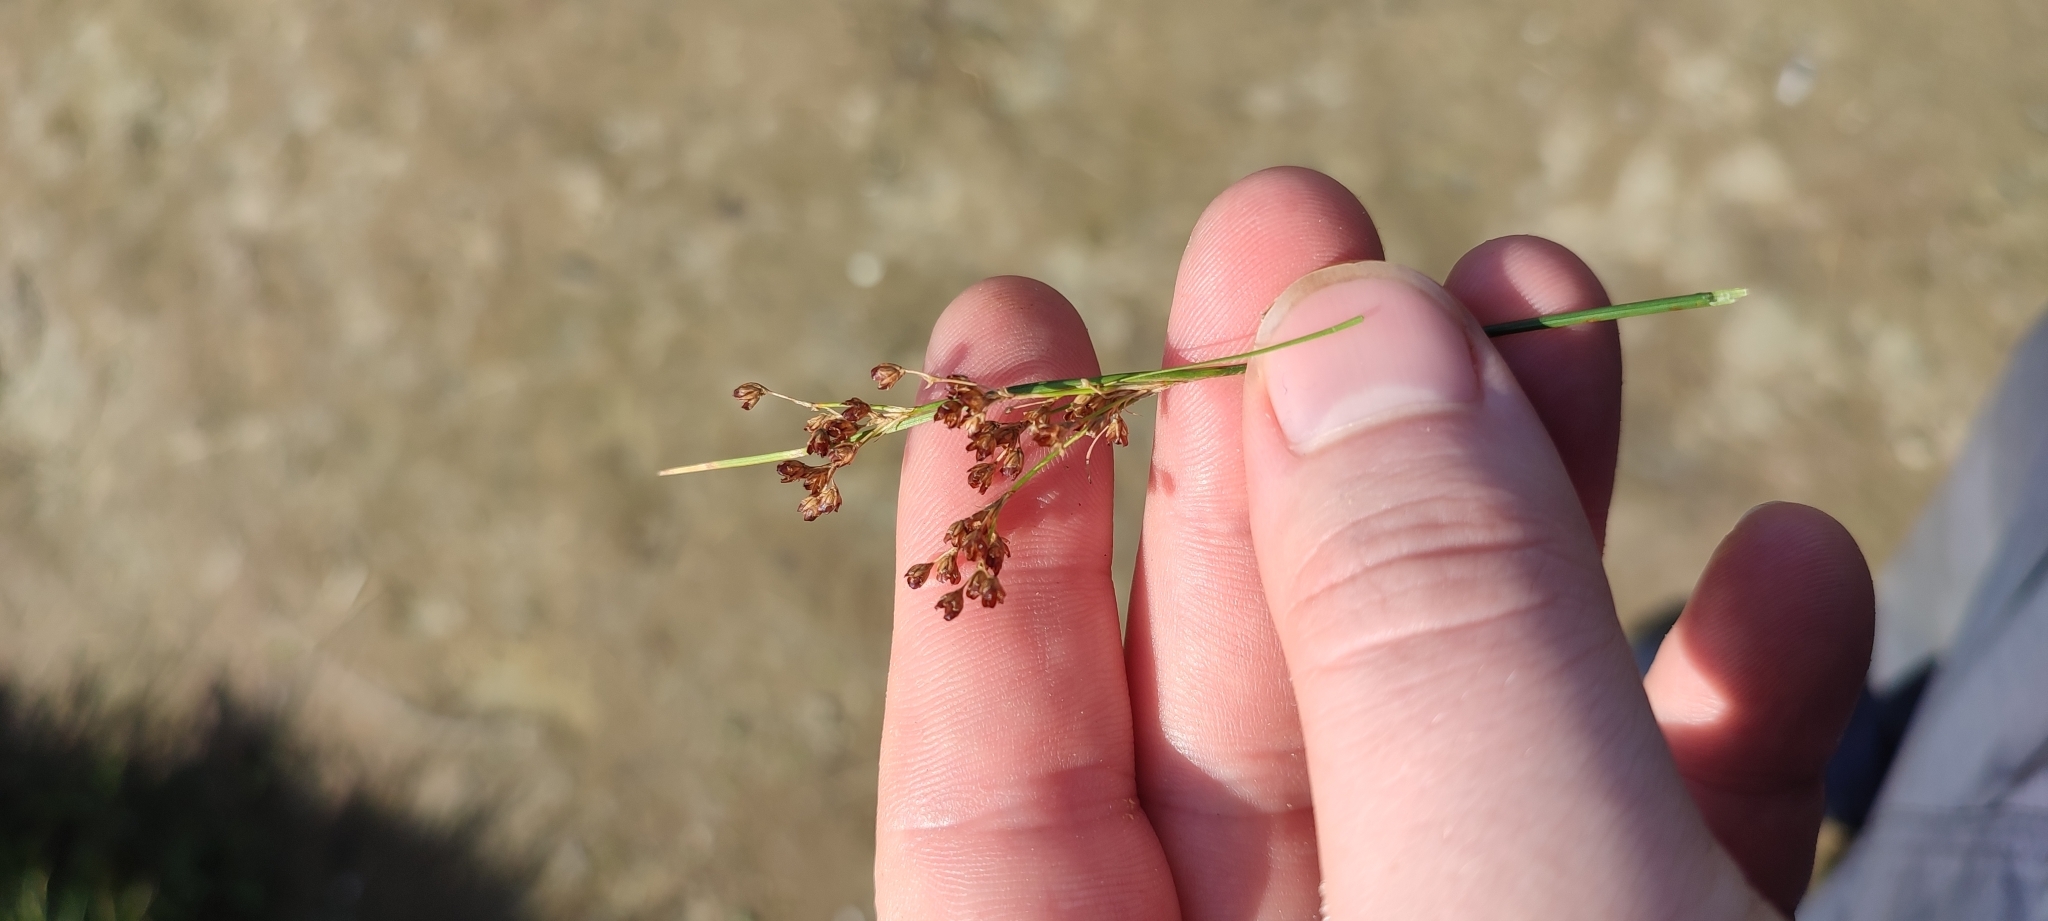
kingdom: Plantae
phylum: Tracheophyta
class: Liliopsida
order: Poales
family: Juncaceae
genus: Juncus
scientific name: Juncus compressus
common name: Round-fruited rush
